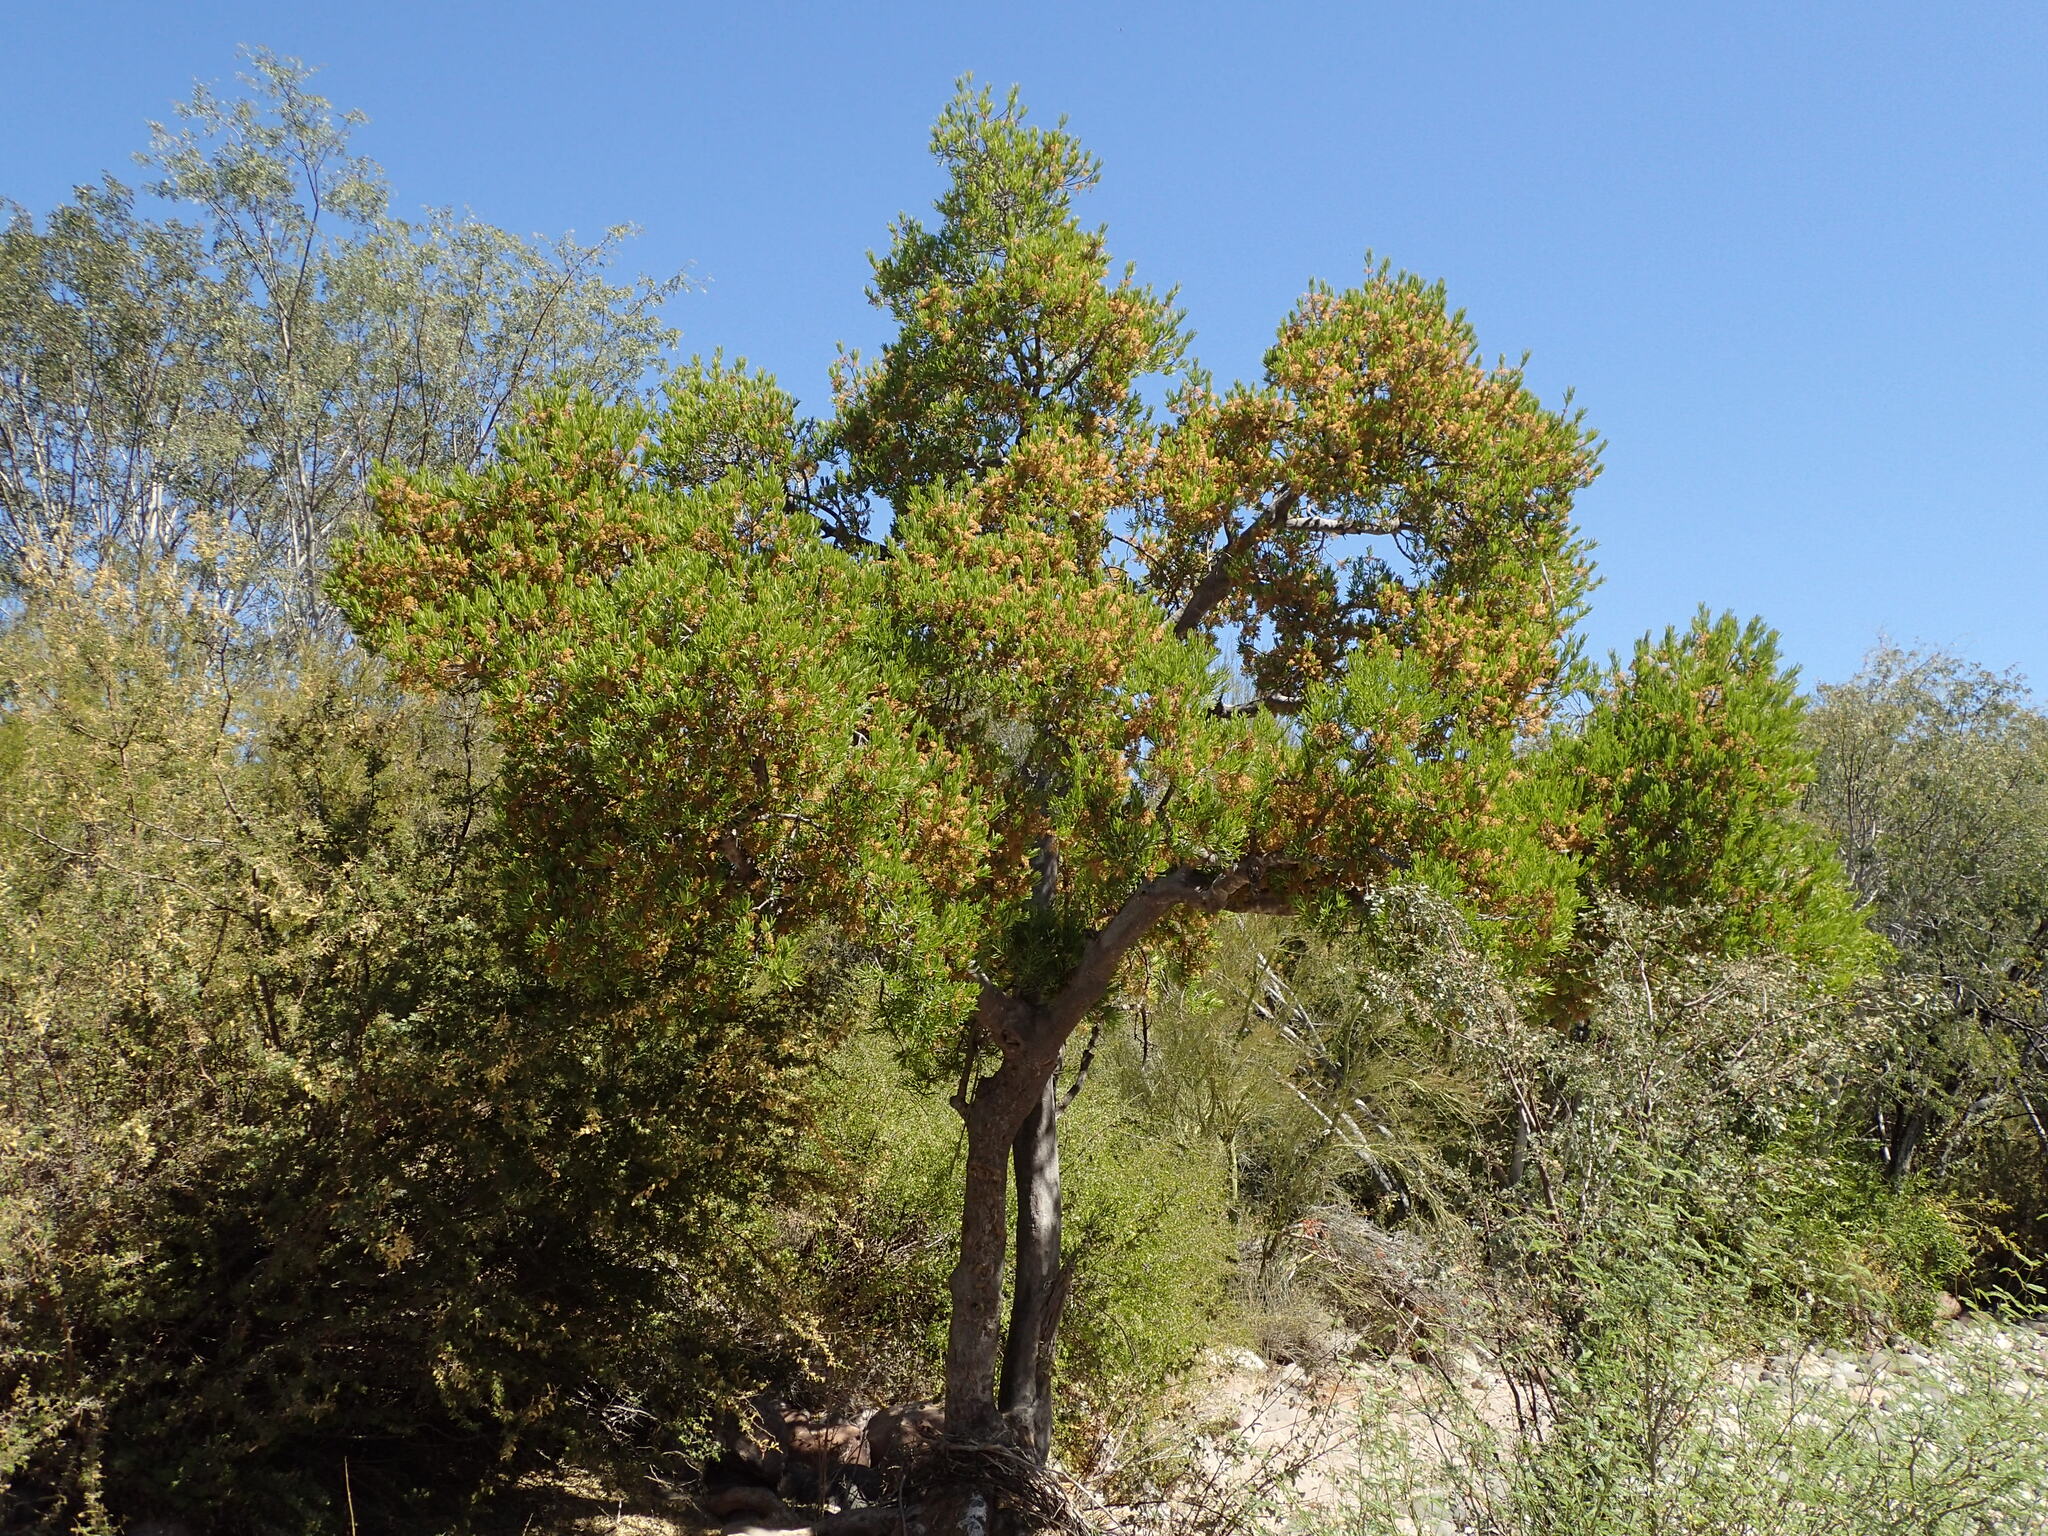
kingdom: Plantae
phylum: Tracheophyta
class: Magnoliopsida
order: Brassicales
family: Stixaceae
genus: Forchhammeria
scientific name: Forchhammeria watsonii
